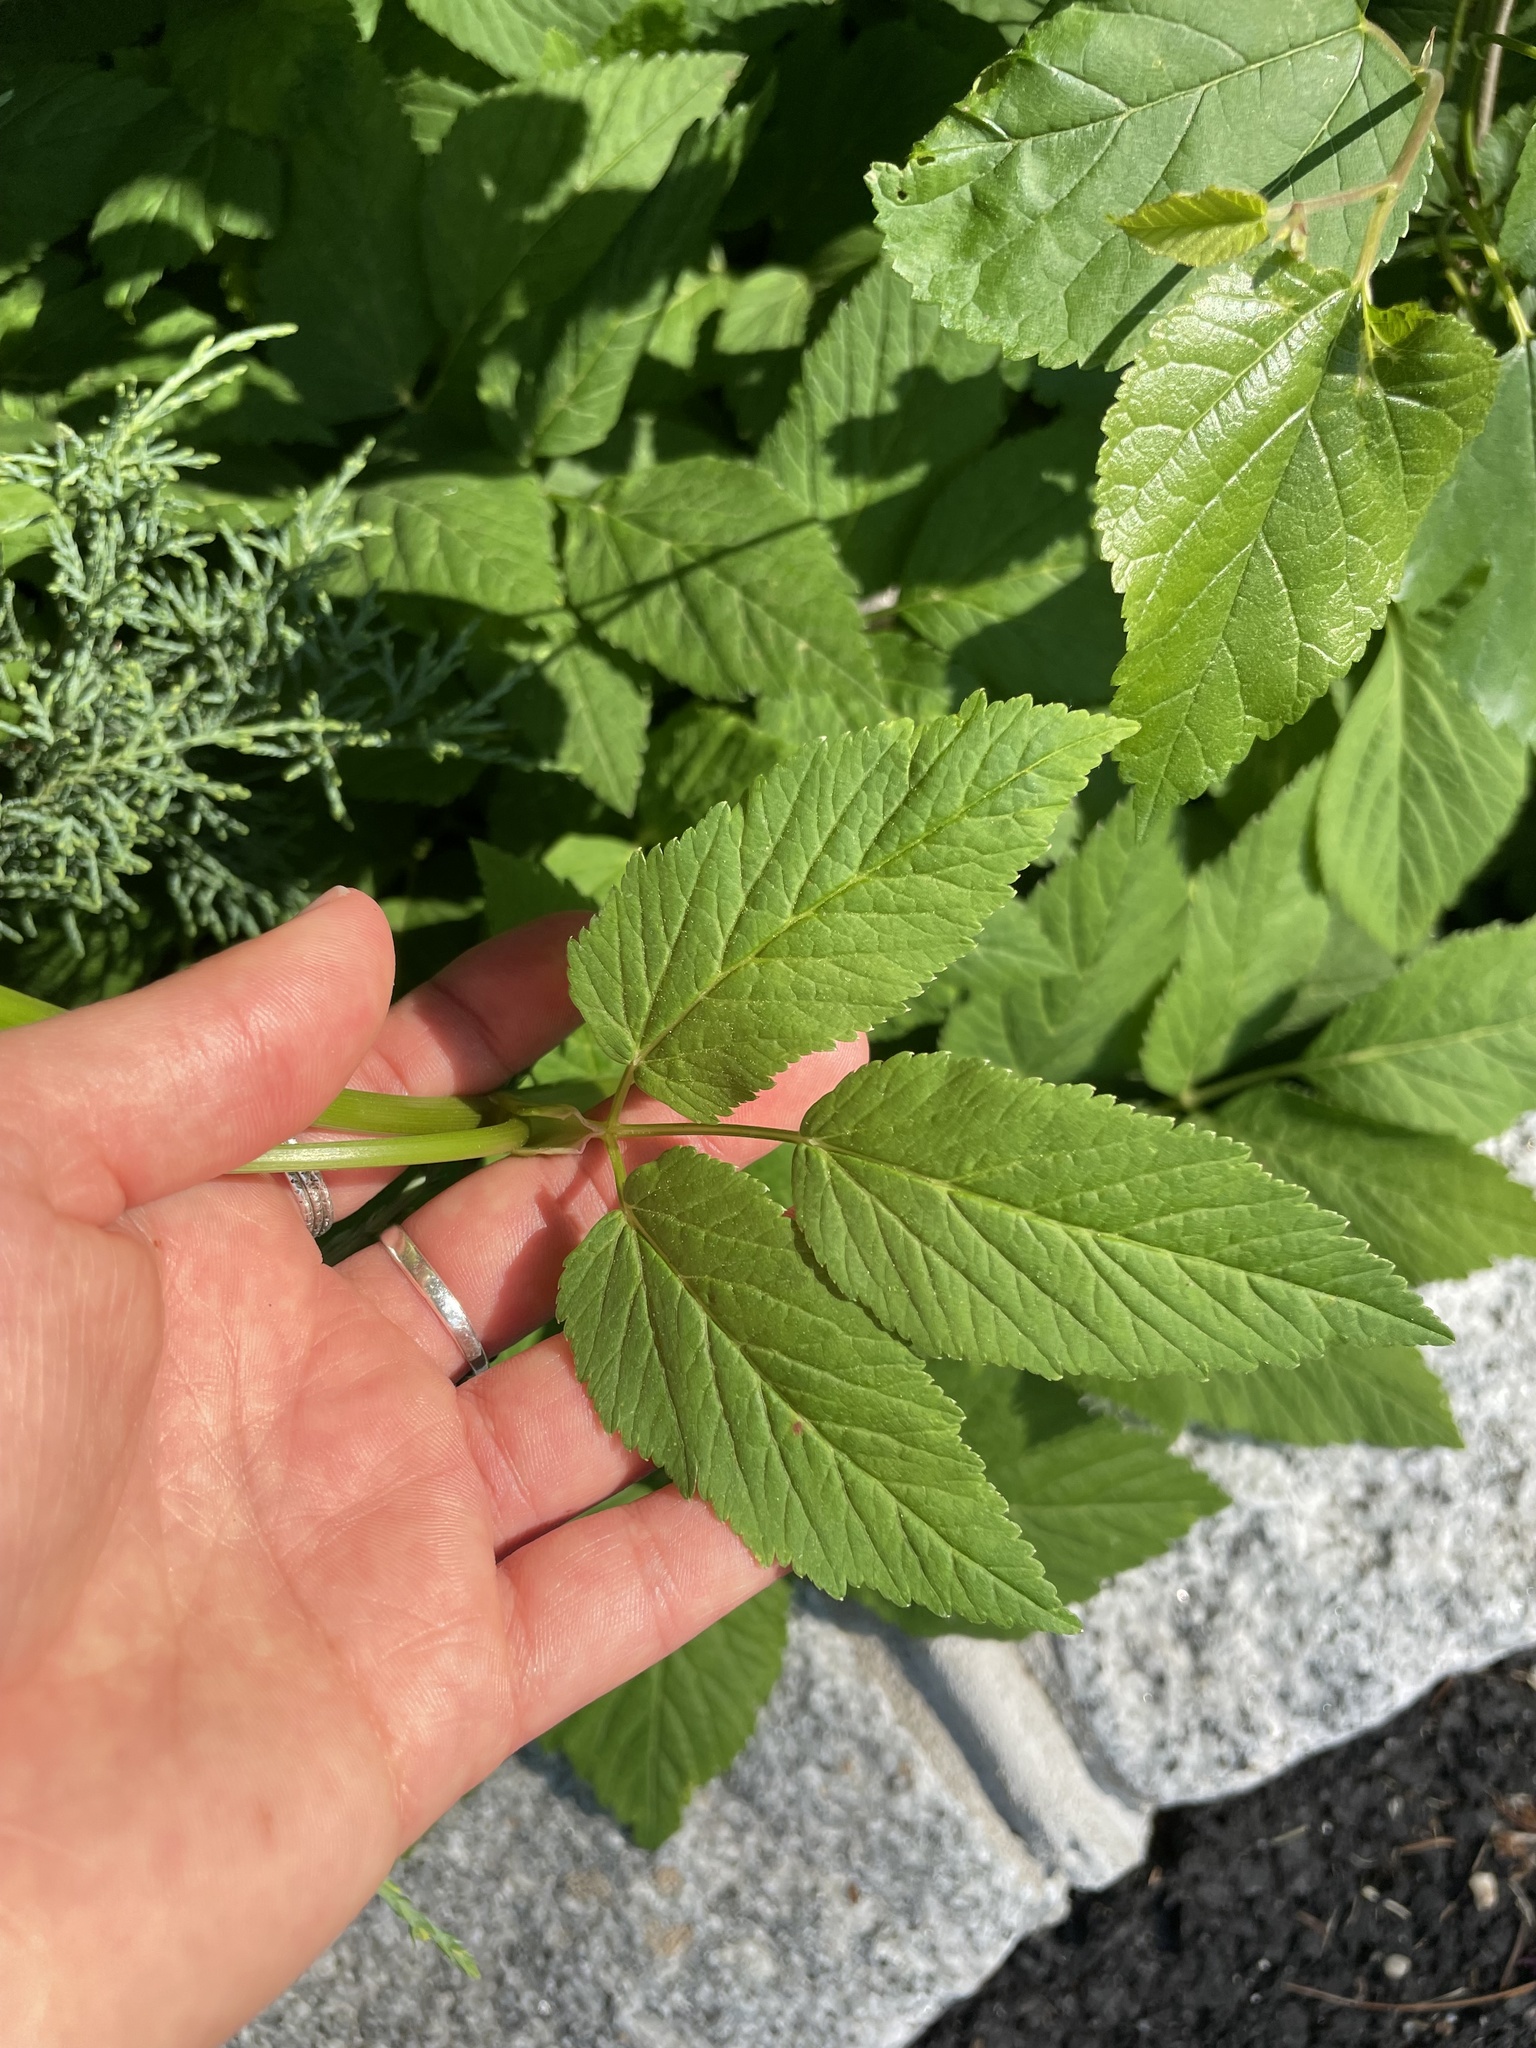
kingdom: Plantae
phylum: Tracheophyta
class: Magnoliopsida
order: Apiales
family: Apiaceae
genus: Aegopodium
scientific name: Aegopodium podagraria
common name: Ground-elder
